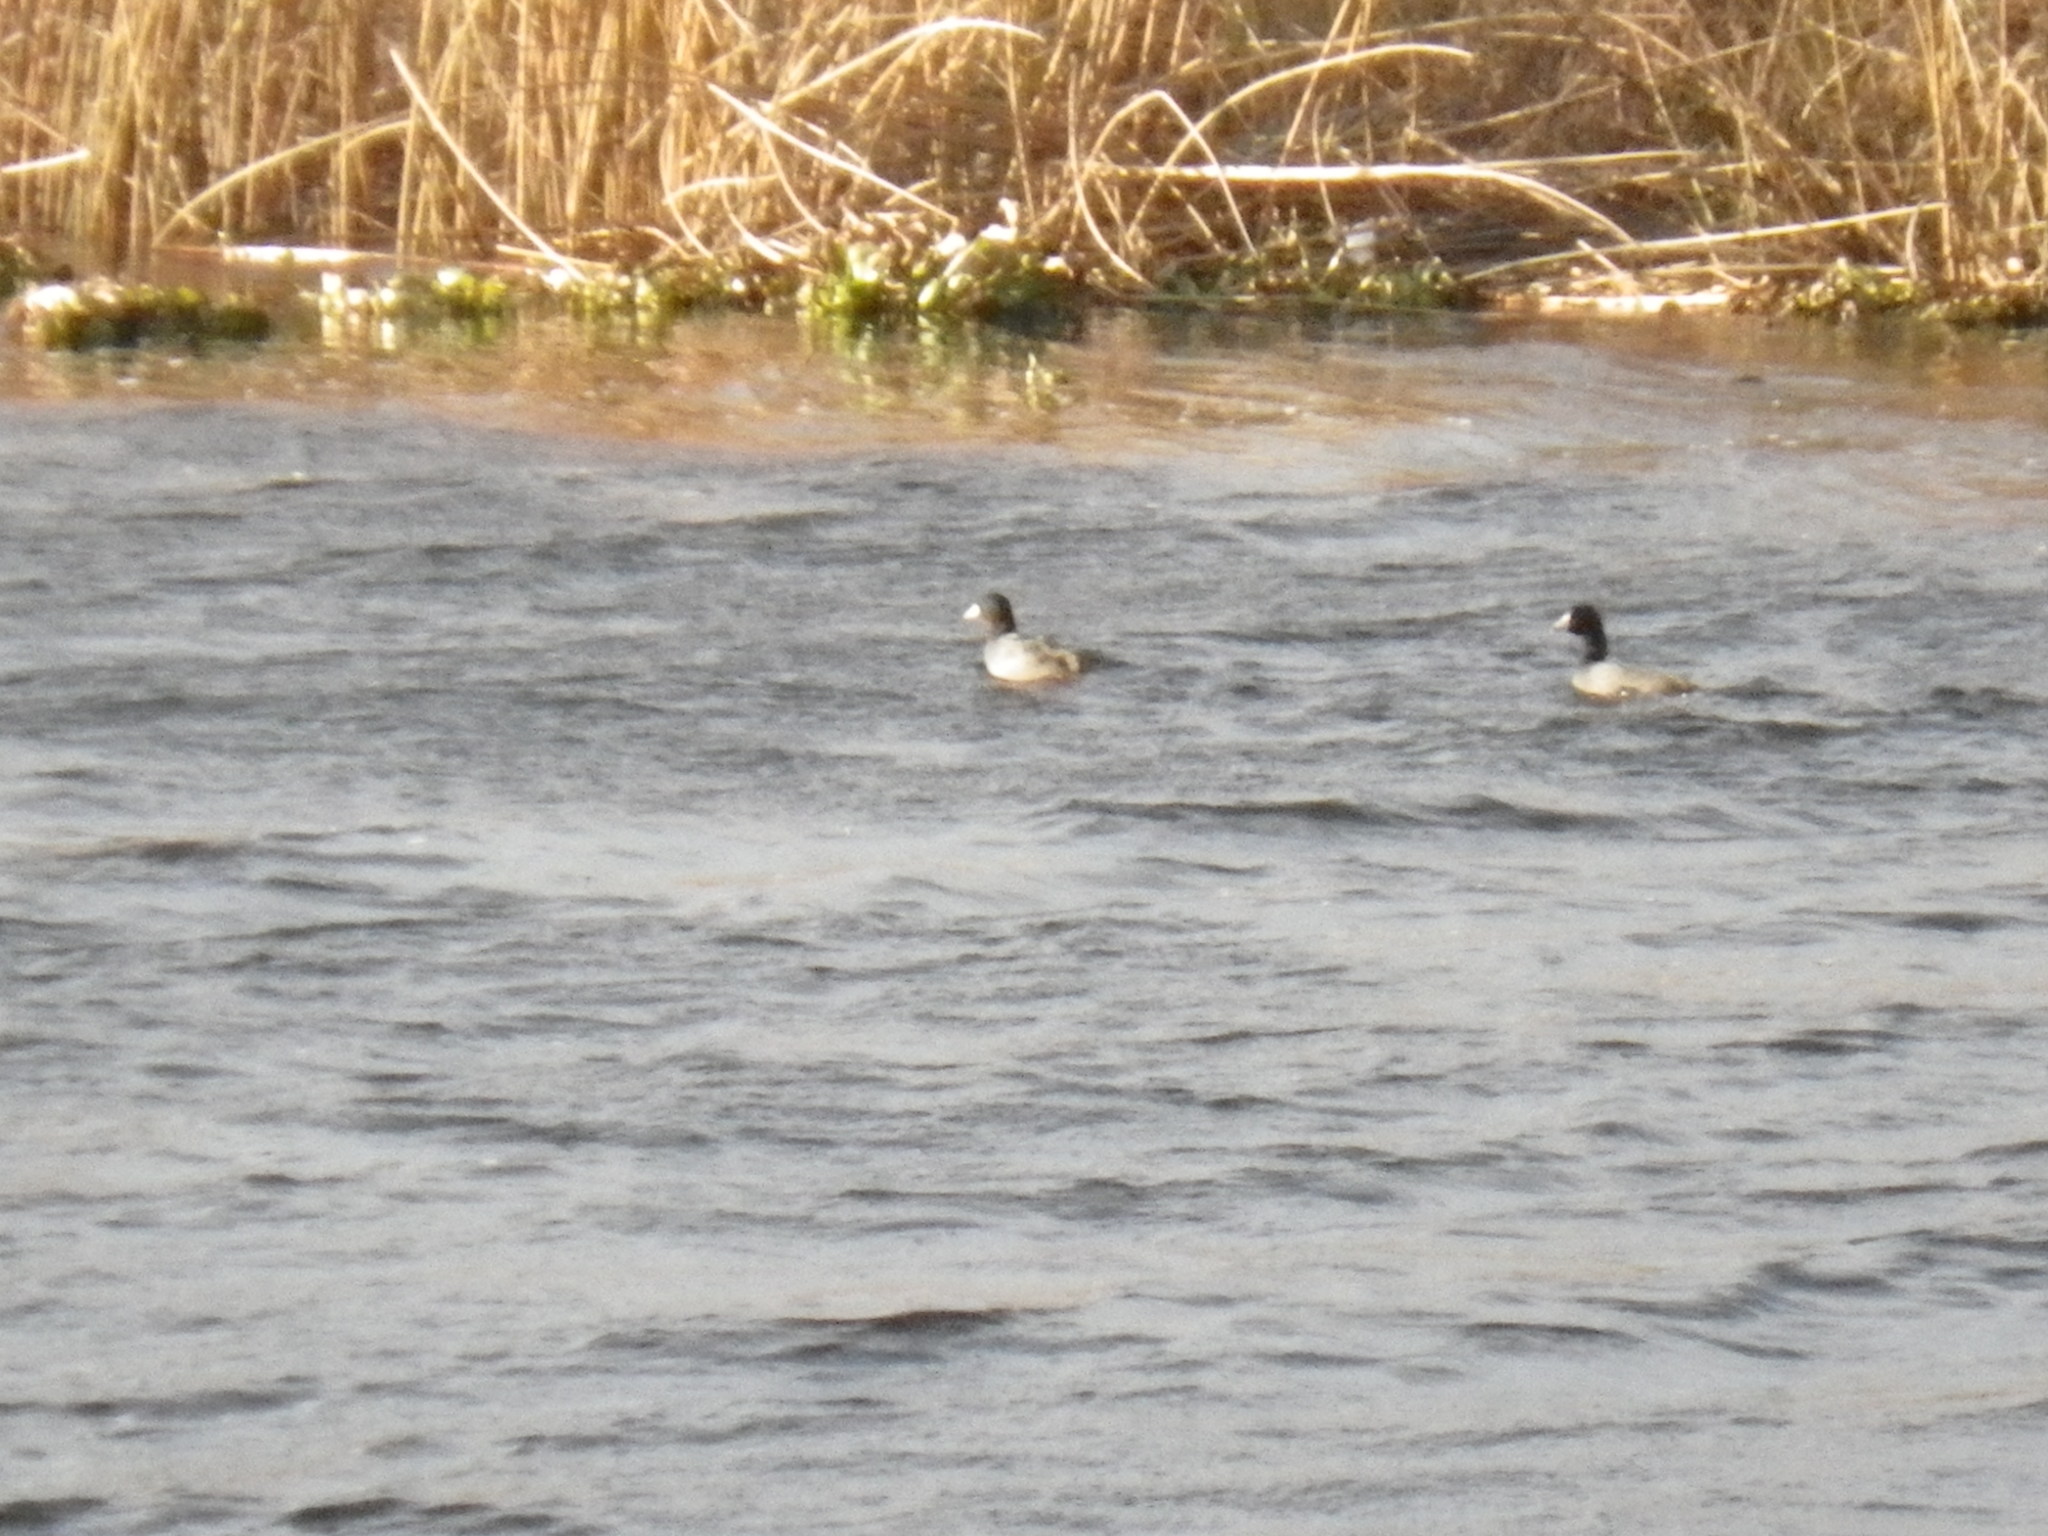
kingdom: Animalia
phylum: Chordata
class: Aves
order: Gruiformes
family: Rallidae
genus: Fulica
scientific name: Fulica americana
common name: American coot
